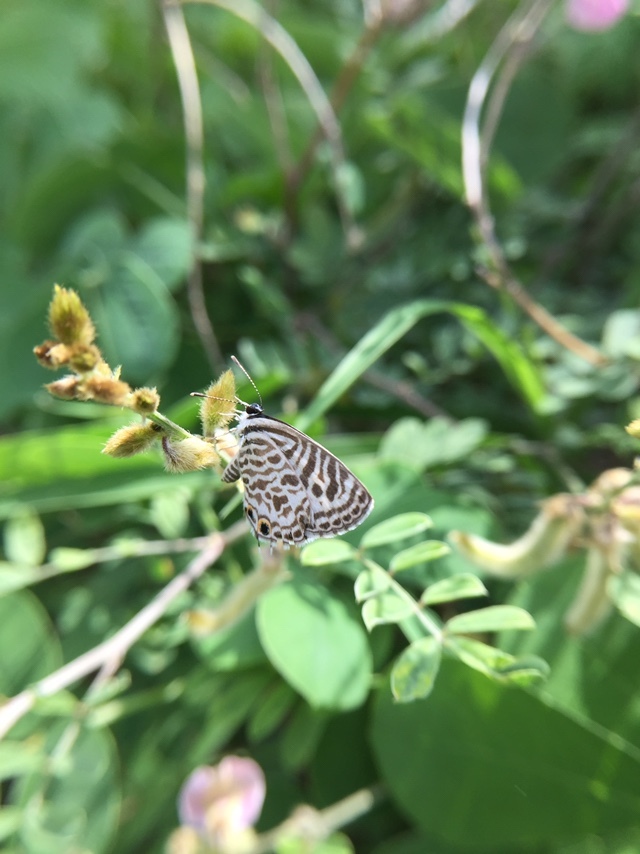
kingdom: Animalia
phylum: Arthropoda
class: Insecta
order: Lepidoptera
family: Lycaenidae
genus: Leptotes
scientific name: Leptotes plinius
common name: Zebra blue
